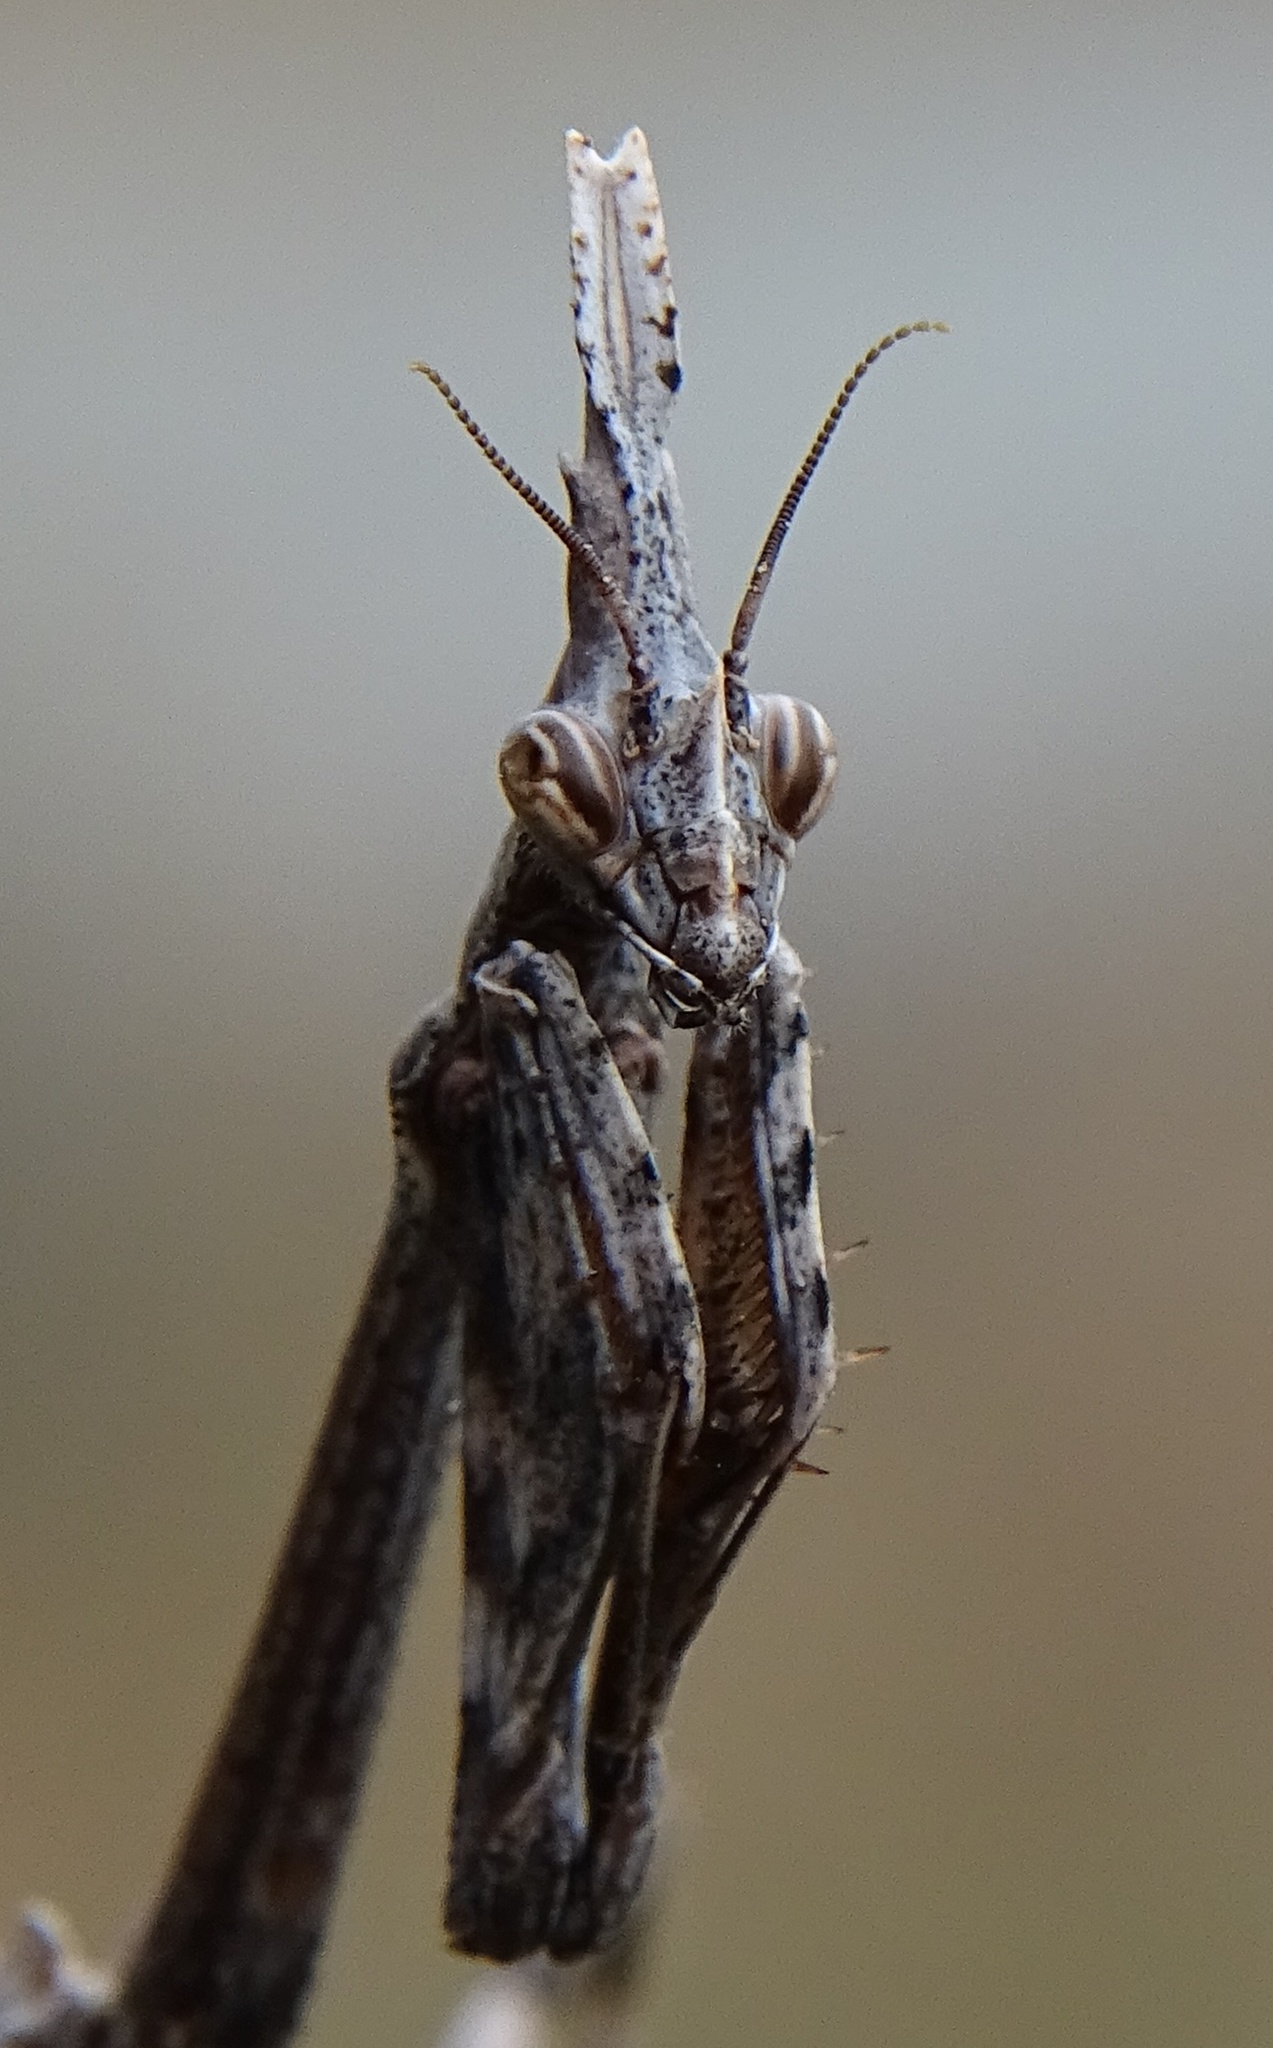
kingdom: Animalia
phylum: Arthropoda
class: Insecta
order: Mantodea
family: Empusidae
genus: Empusa
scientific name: Empusa pennata
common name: Conehead mantis
